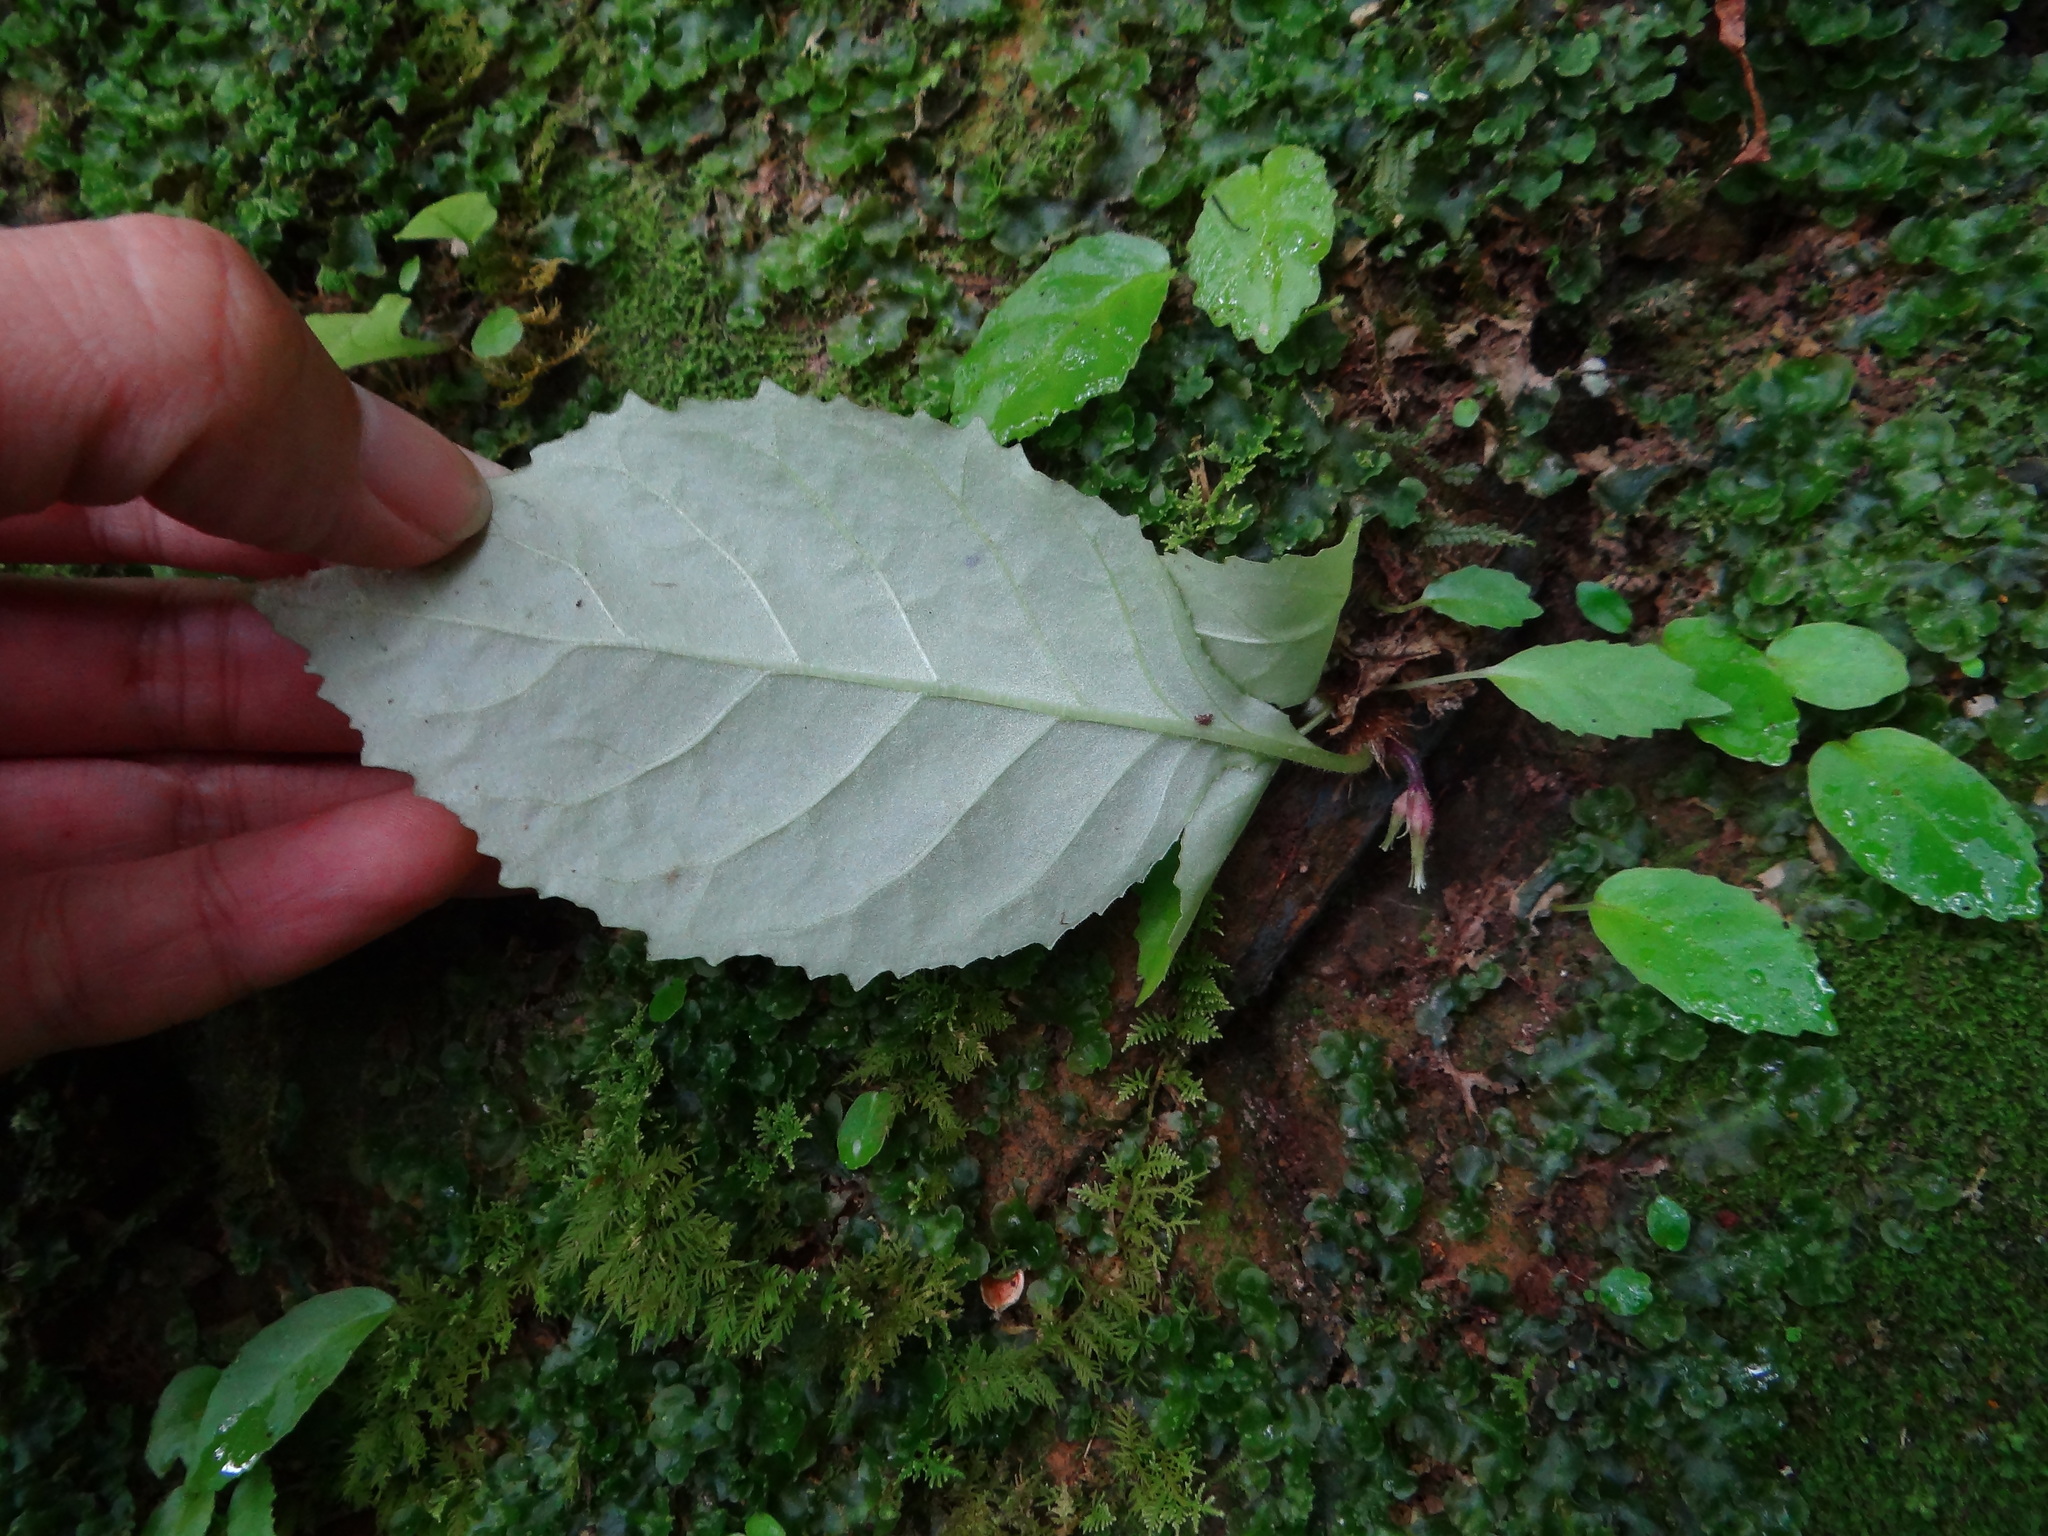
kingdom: Plantae
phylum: Tracheophyta
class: Magnoliopsida
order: Lamiales
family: Gesneriaceae
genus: Conandron
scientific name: Conandron ramondioides
